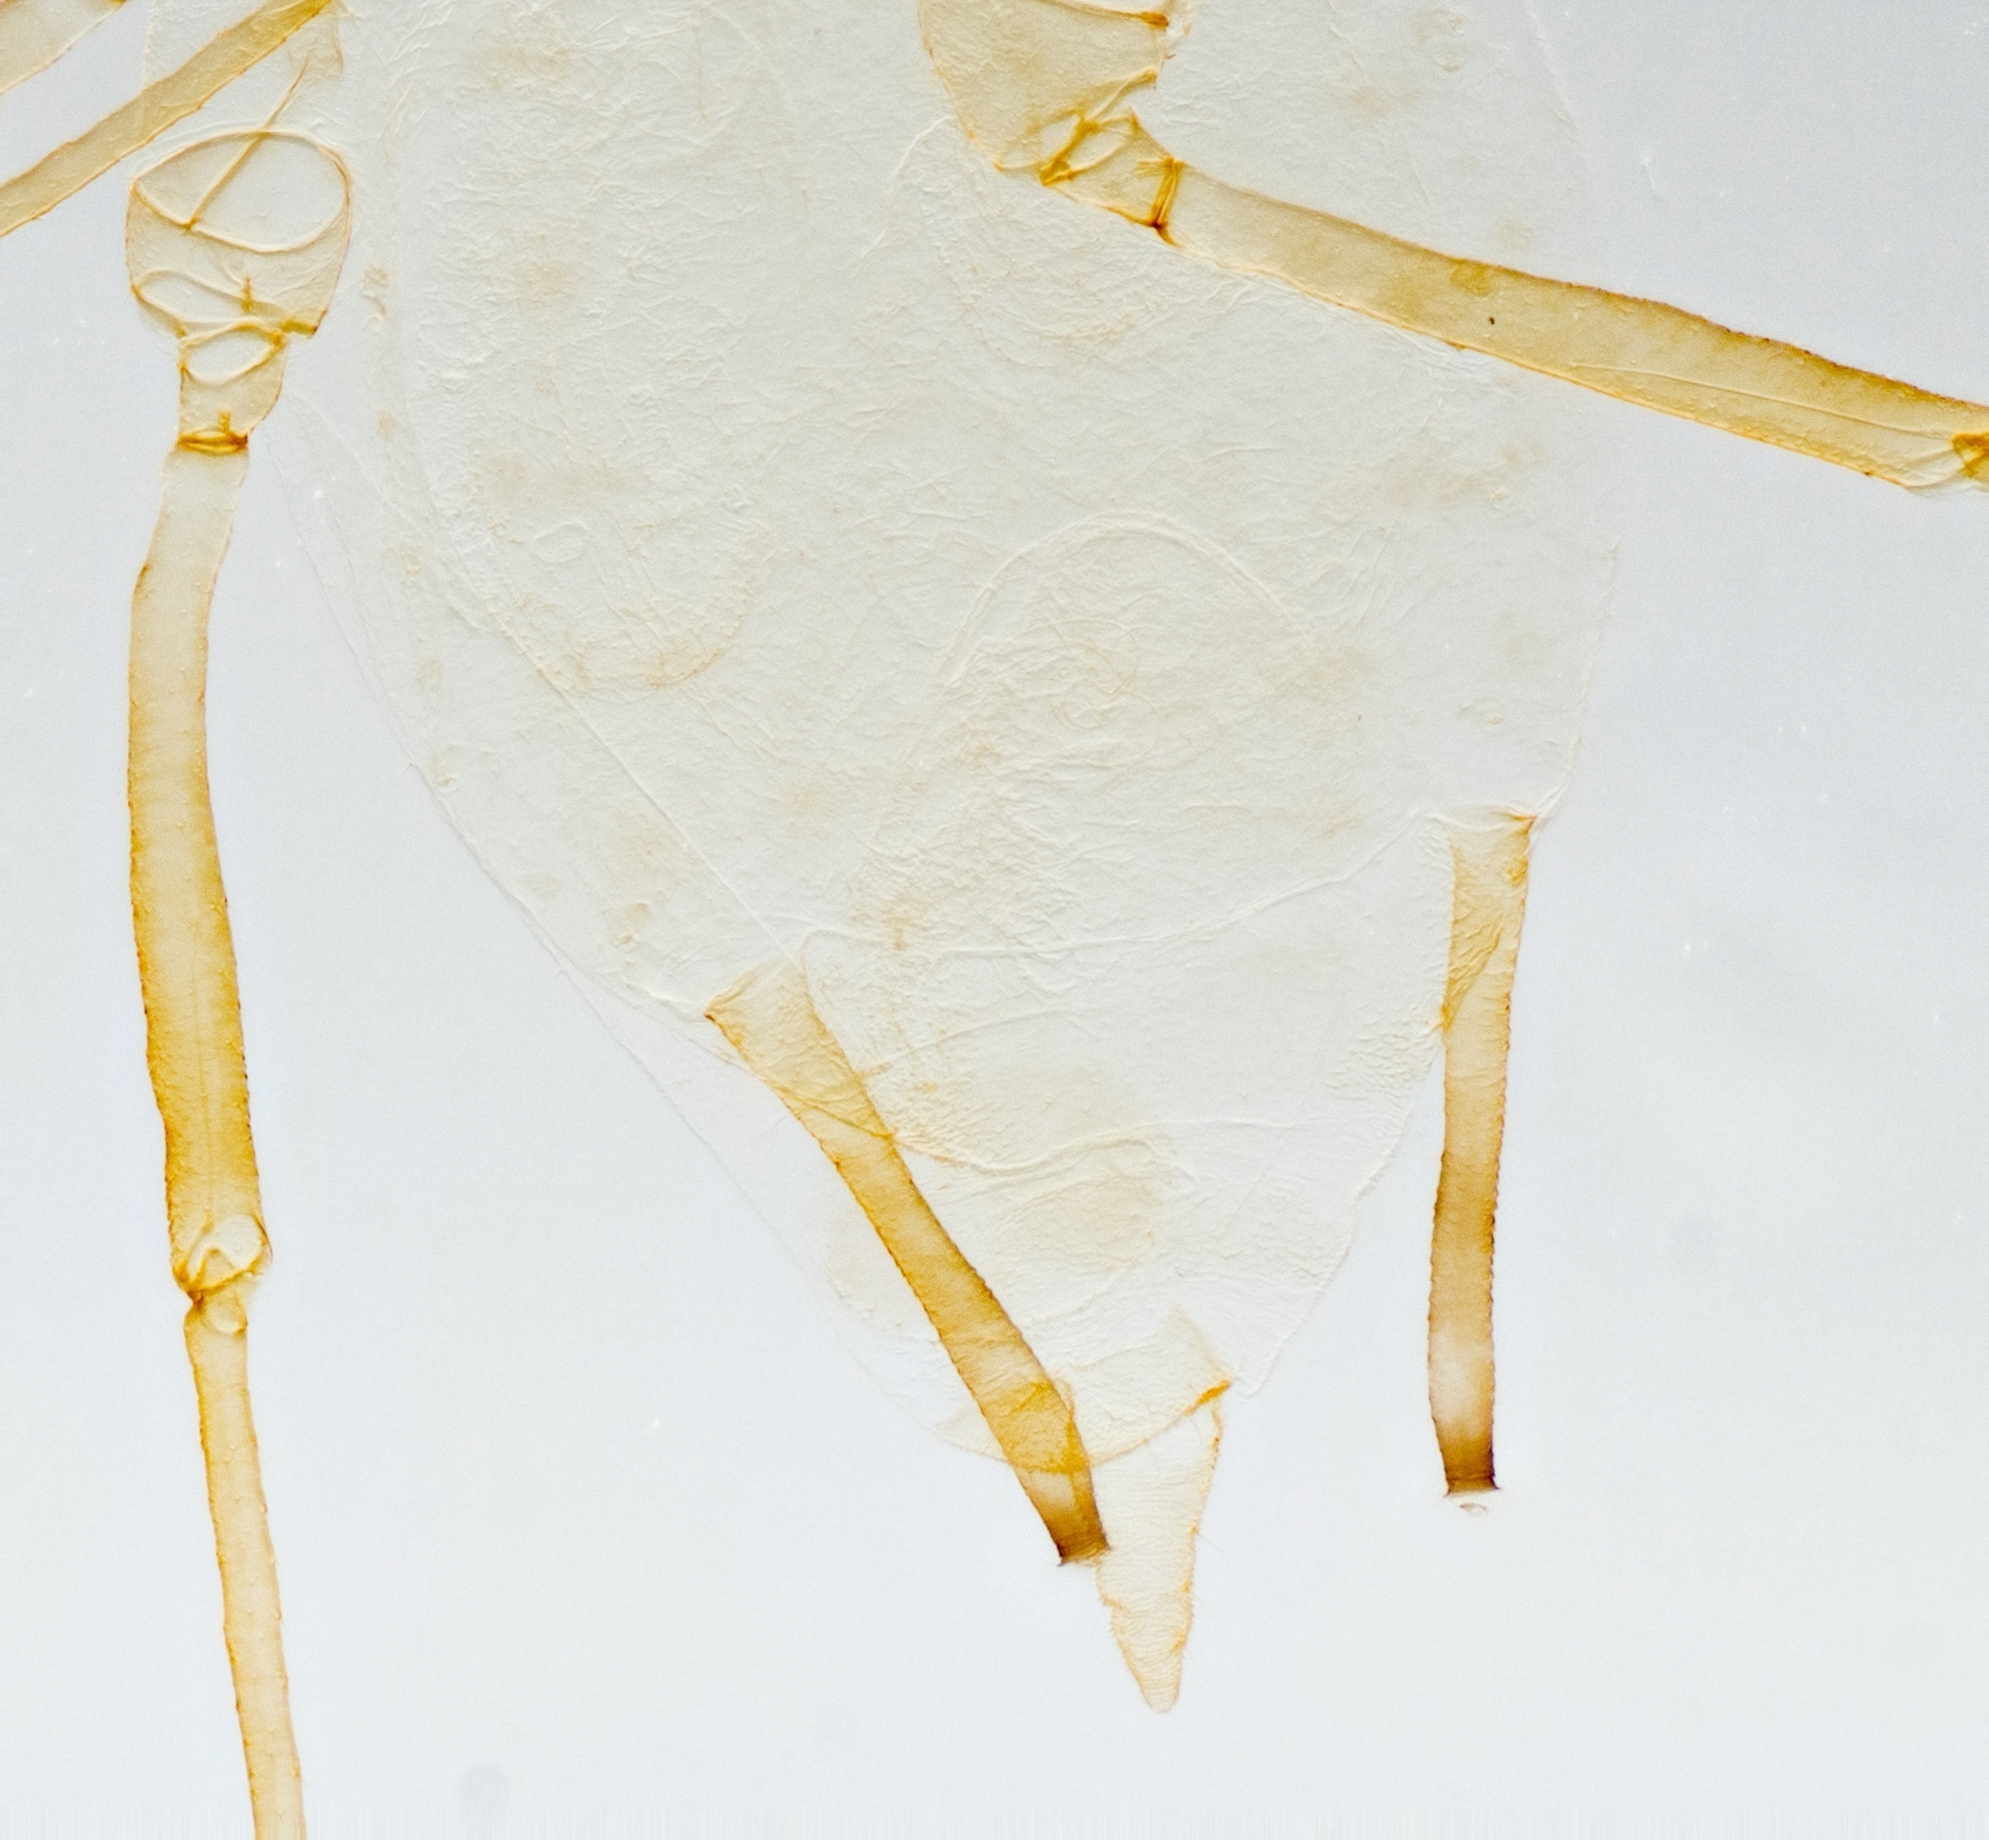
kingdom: Animalia
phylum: Arthropoda
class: Insecta
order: Hemiptera
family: Aphididae
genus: Myzus
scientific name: Myzus persicae
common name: Green peach aphid
